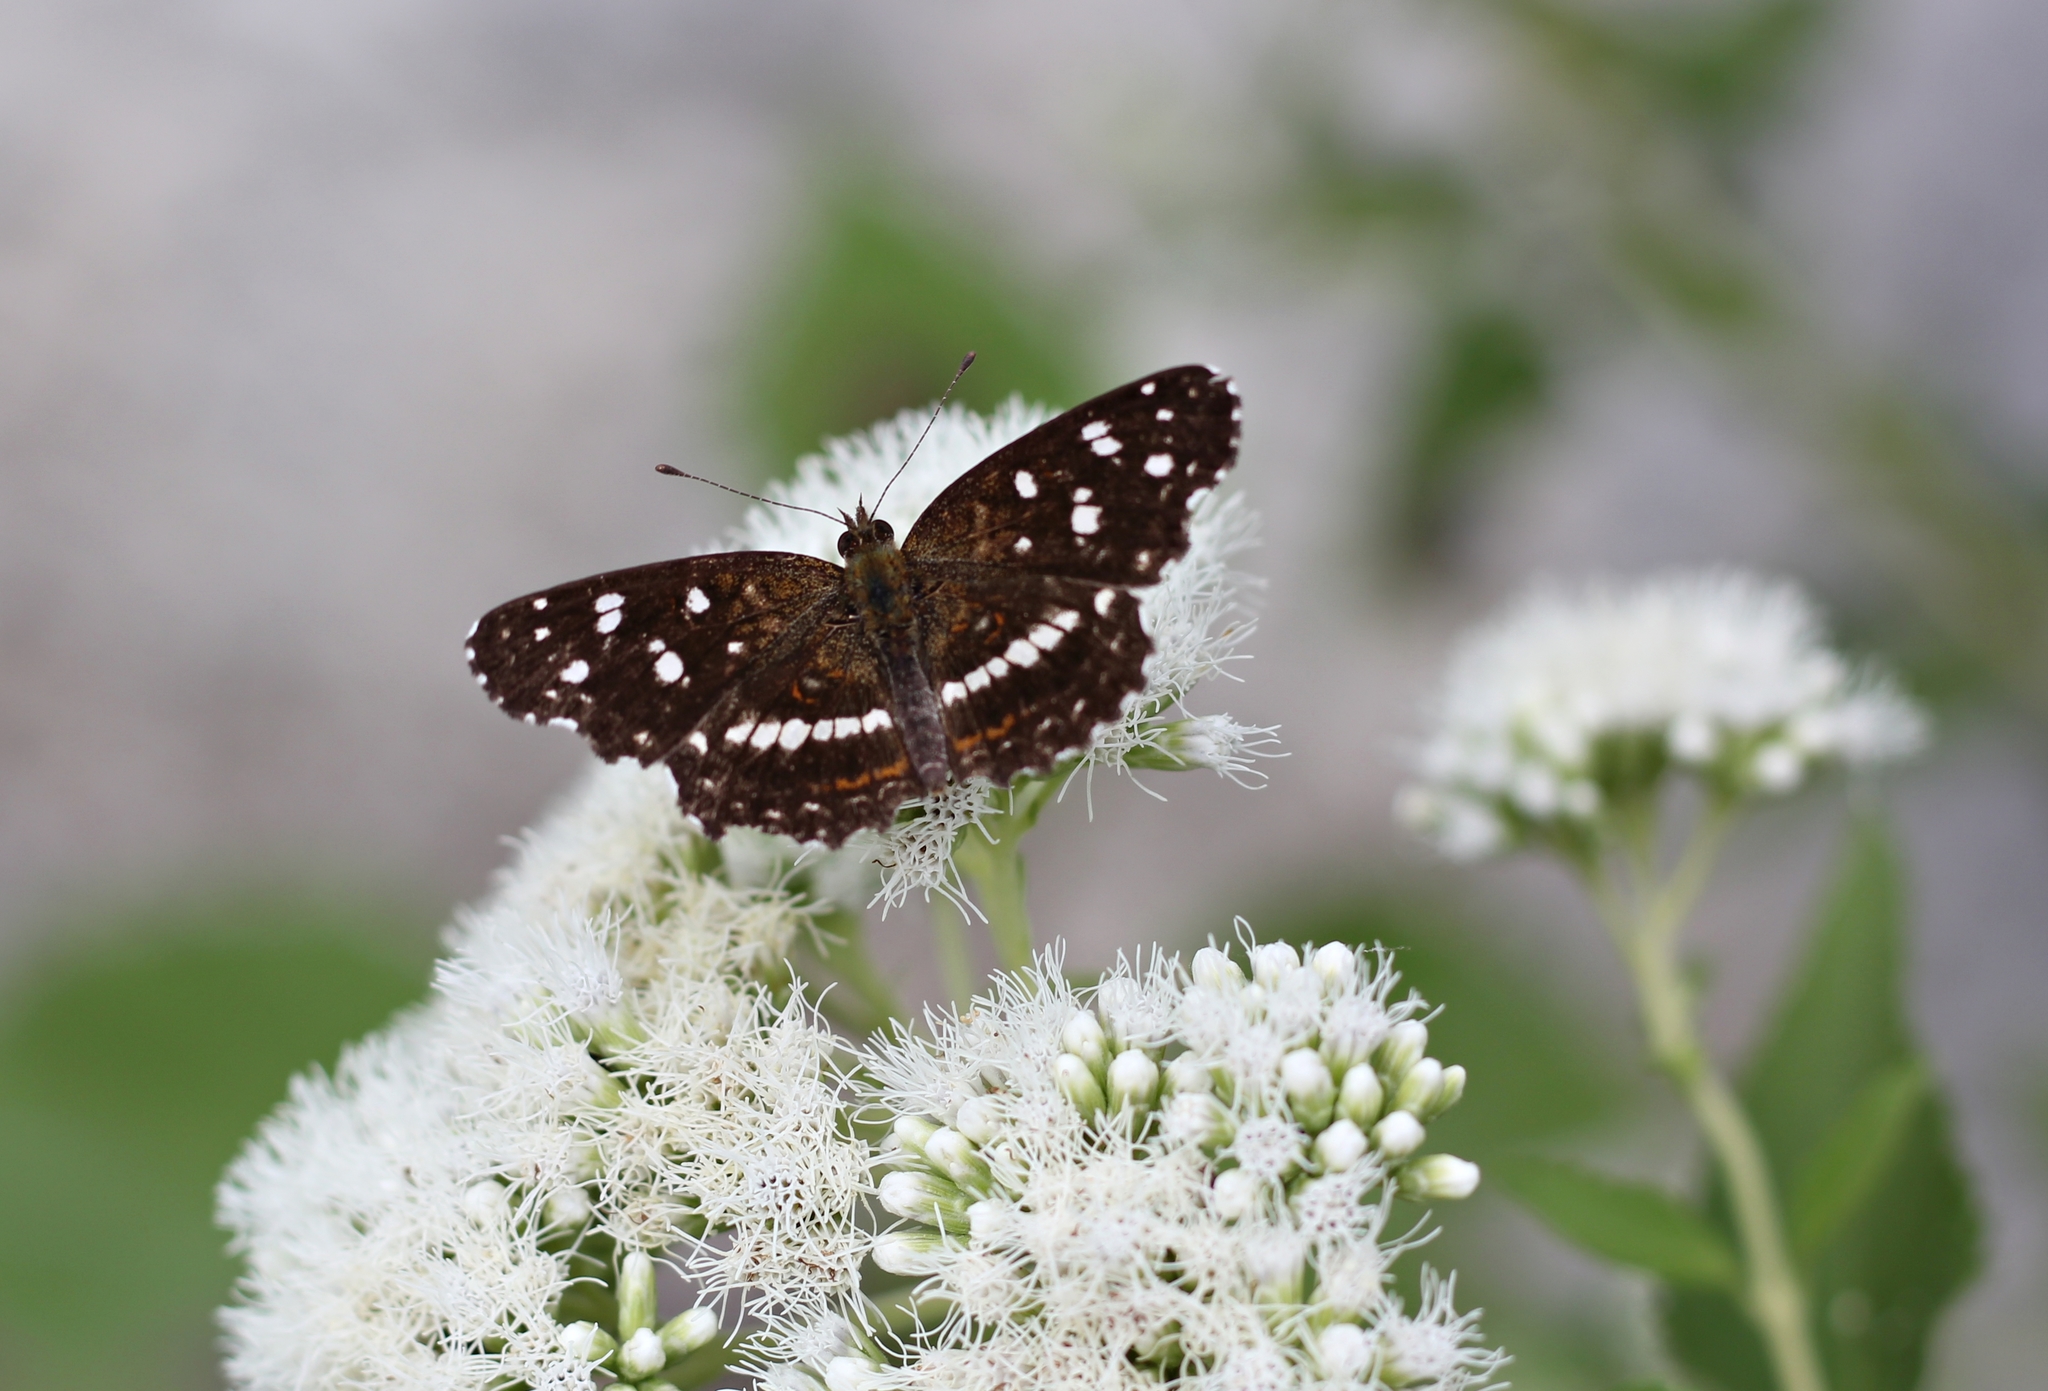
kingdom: Animalia
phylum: Arthropoda
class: Insecta
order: Lepidoptera
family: Nymphalidae
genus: Ortilia
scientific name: Ortilia ithra
